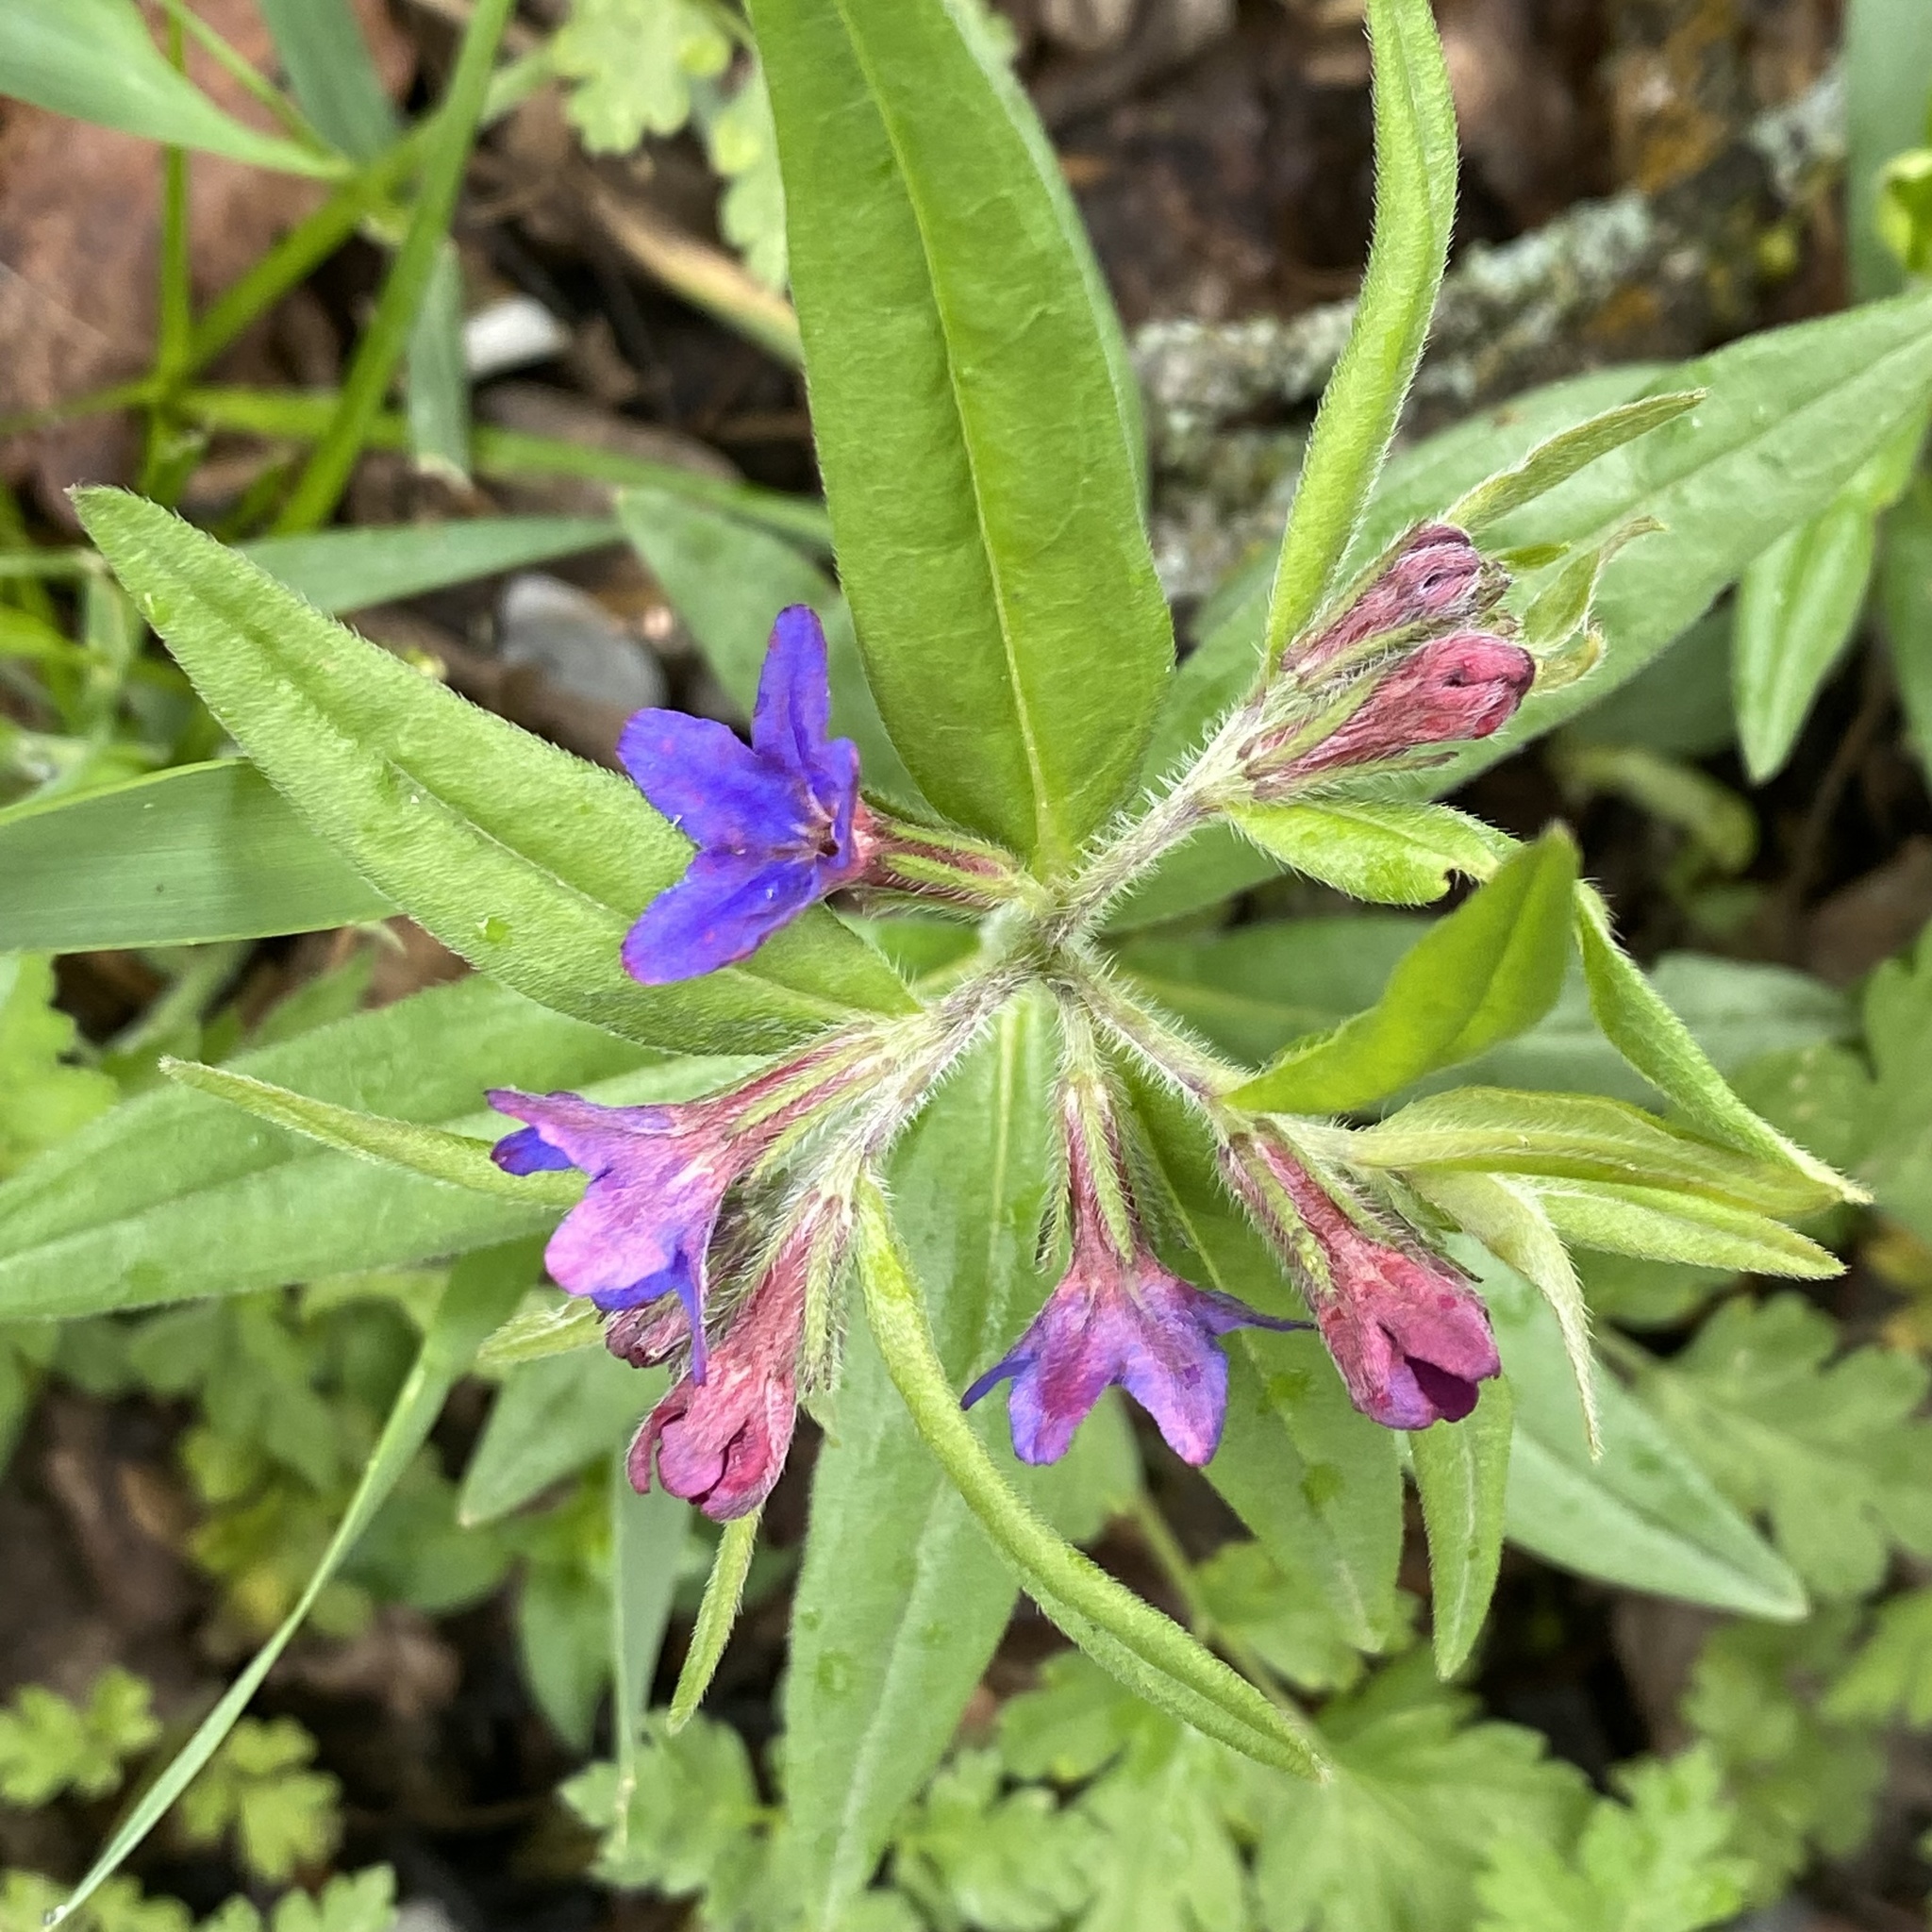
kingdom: Plantae
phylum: Tracheophyta
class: Magnoliopsida
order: Boraginales
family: Boraginaceae
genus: Aegonychon
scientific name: Aegonychon purpurocaeruleum
